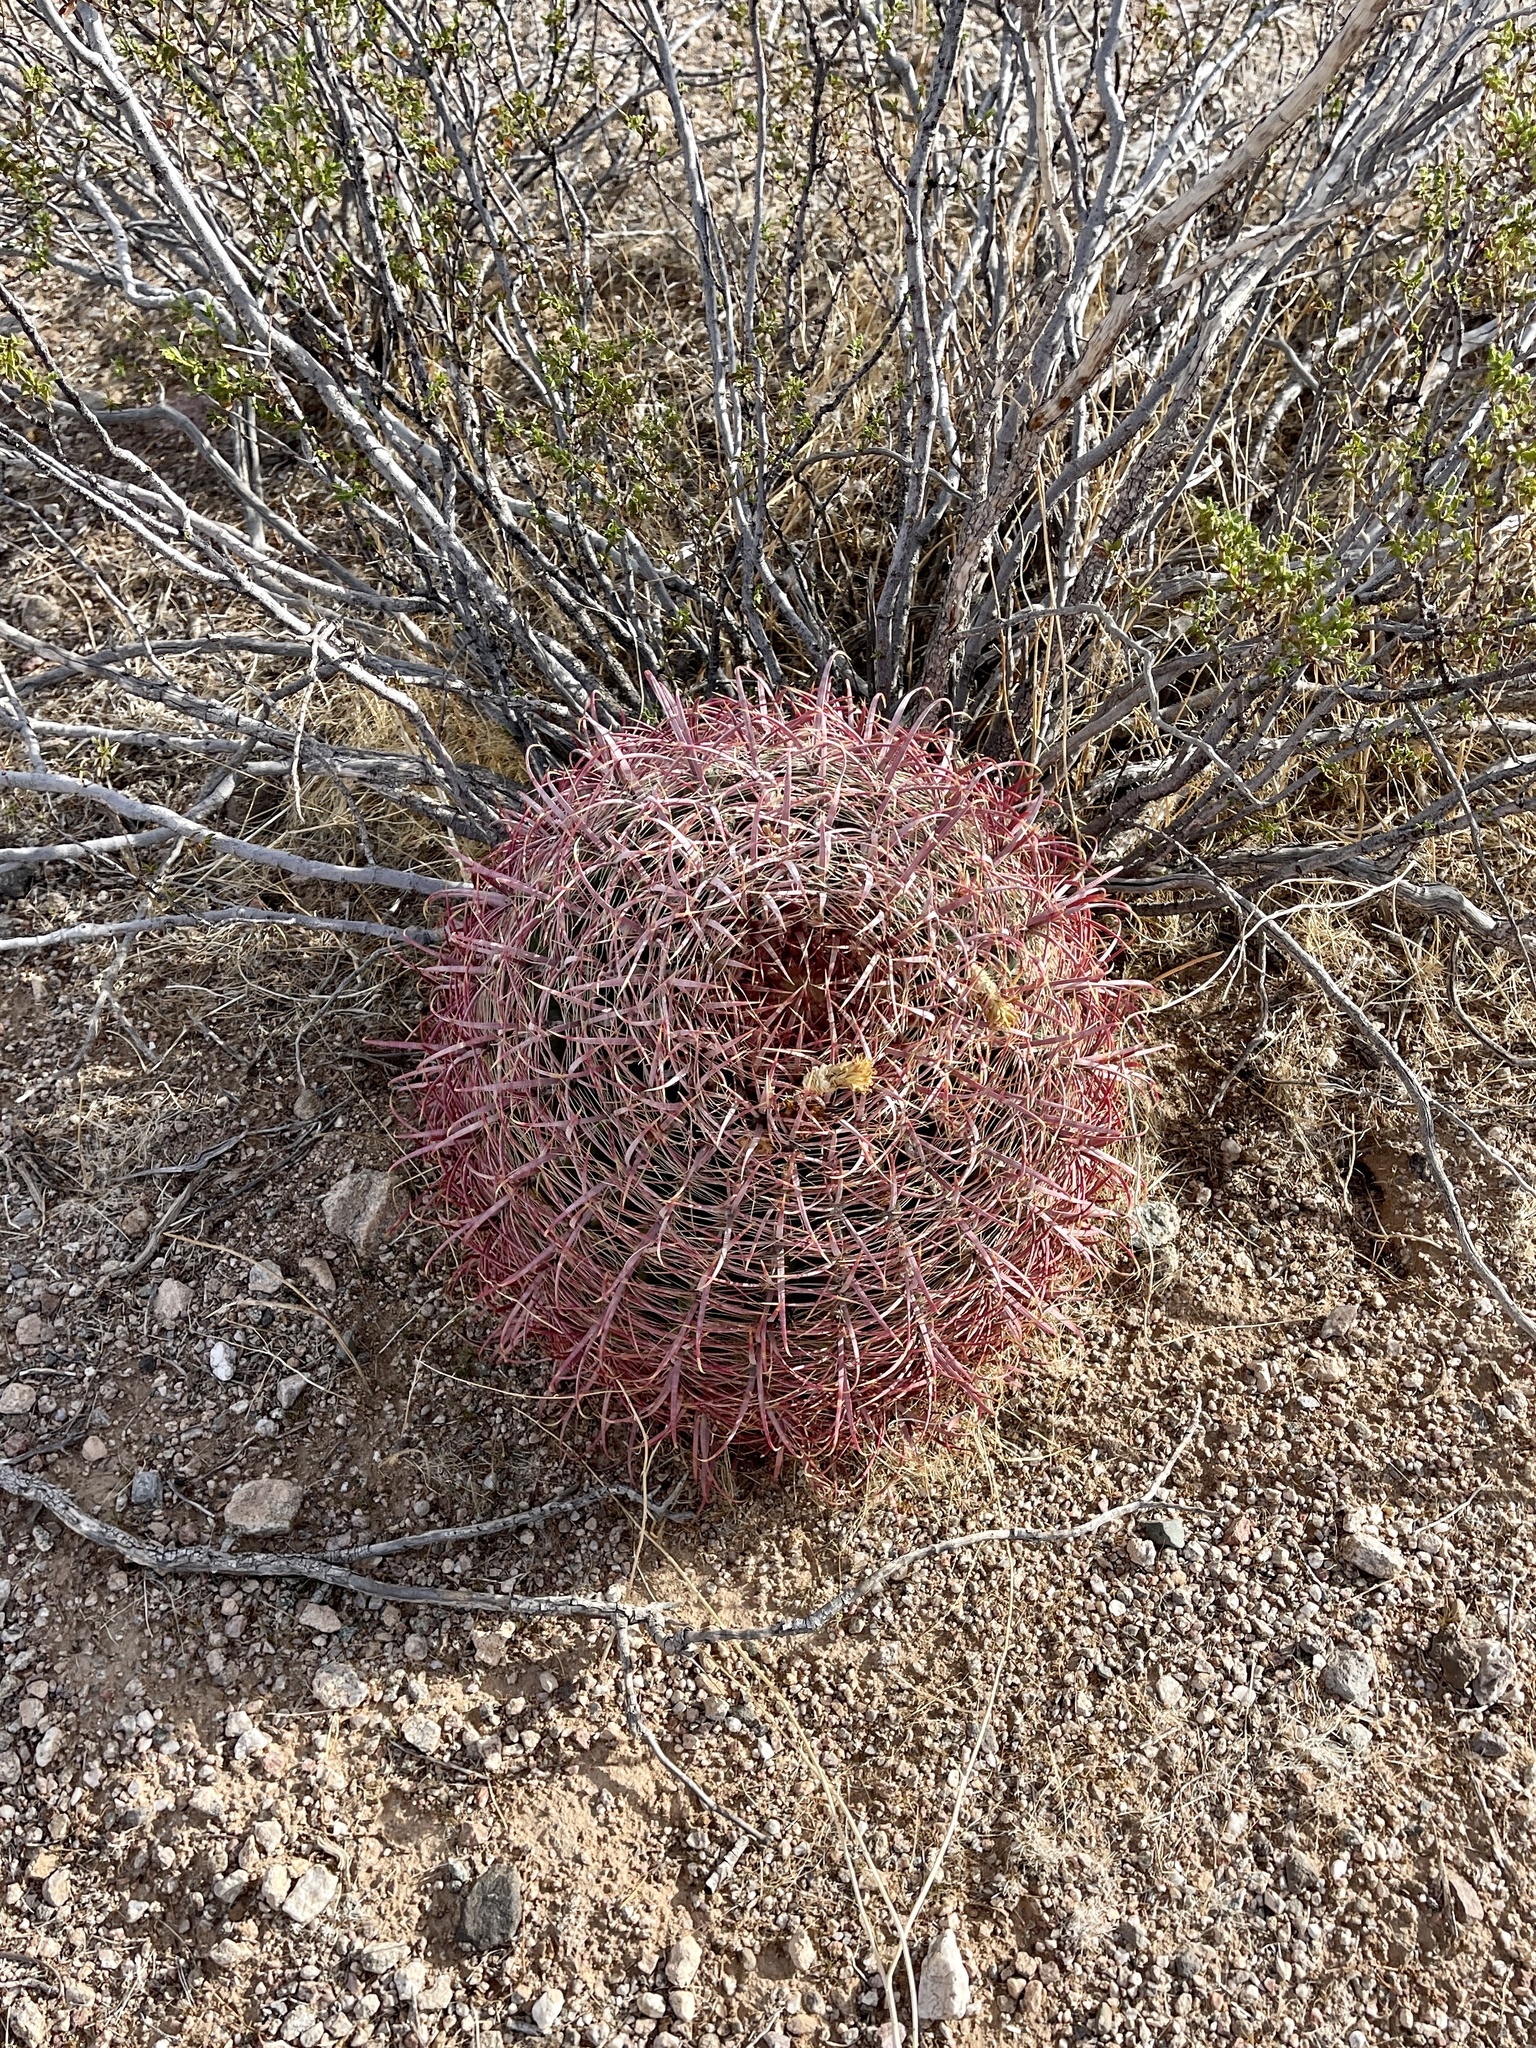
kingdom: Plantae
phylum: Tracheophyta
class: Magnoliopsida
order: Caryophyllales
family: Cactaceae
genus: Ferocactus
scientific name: Ferocactus cylindraceus
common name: California barrel cactus
